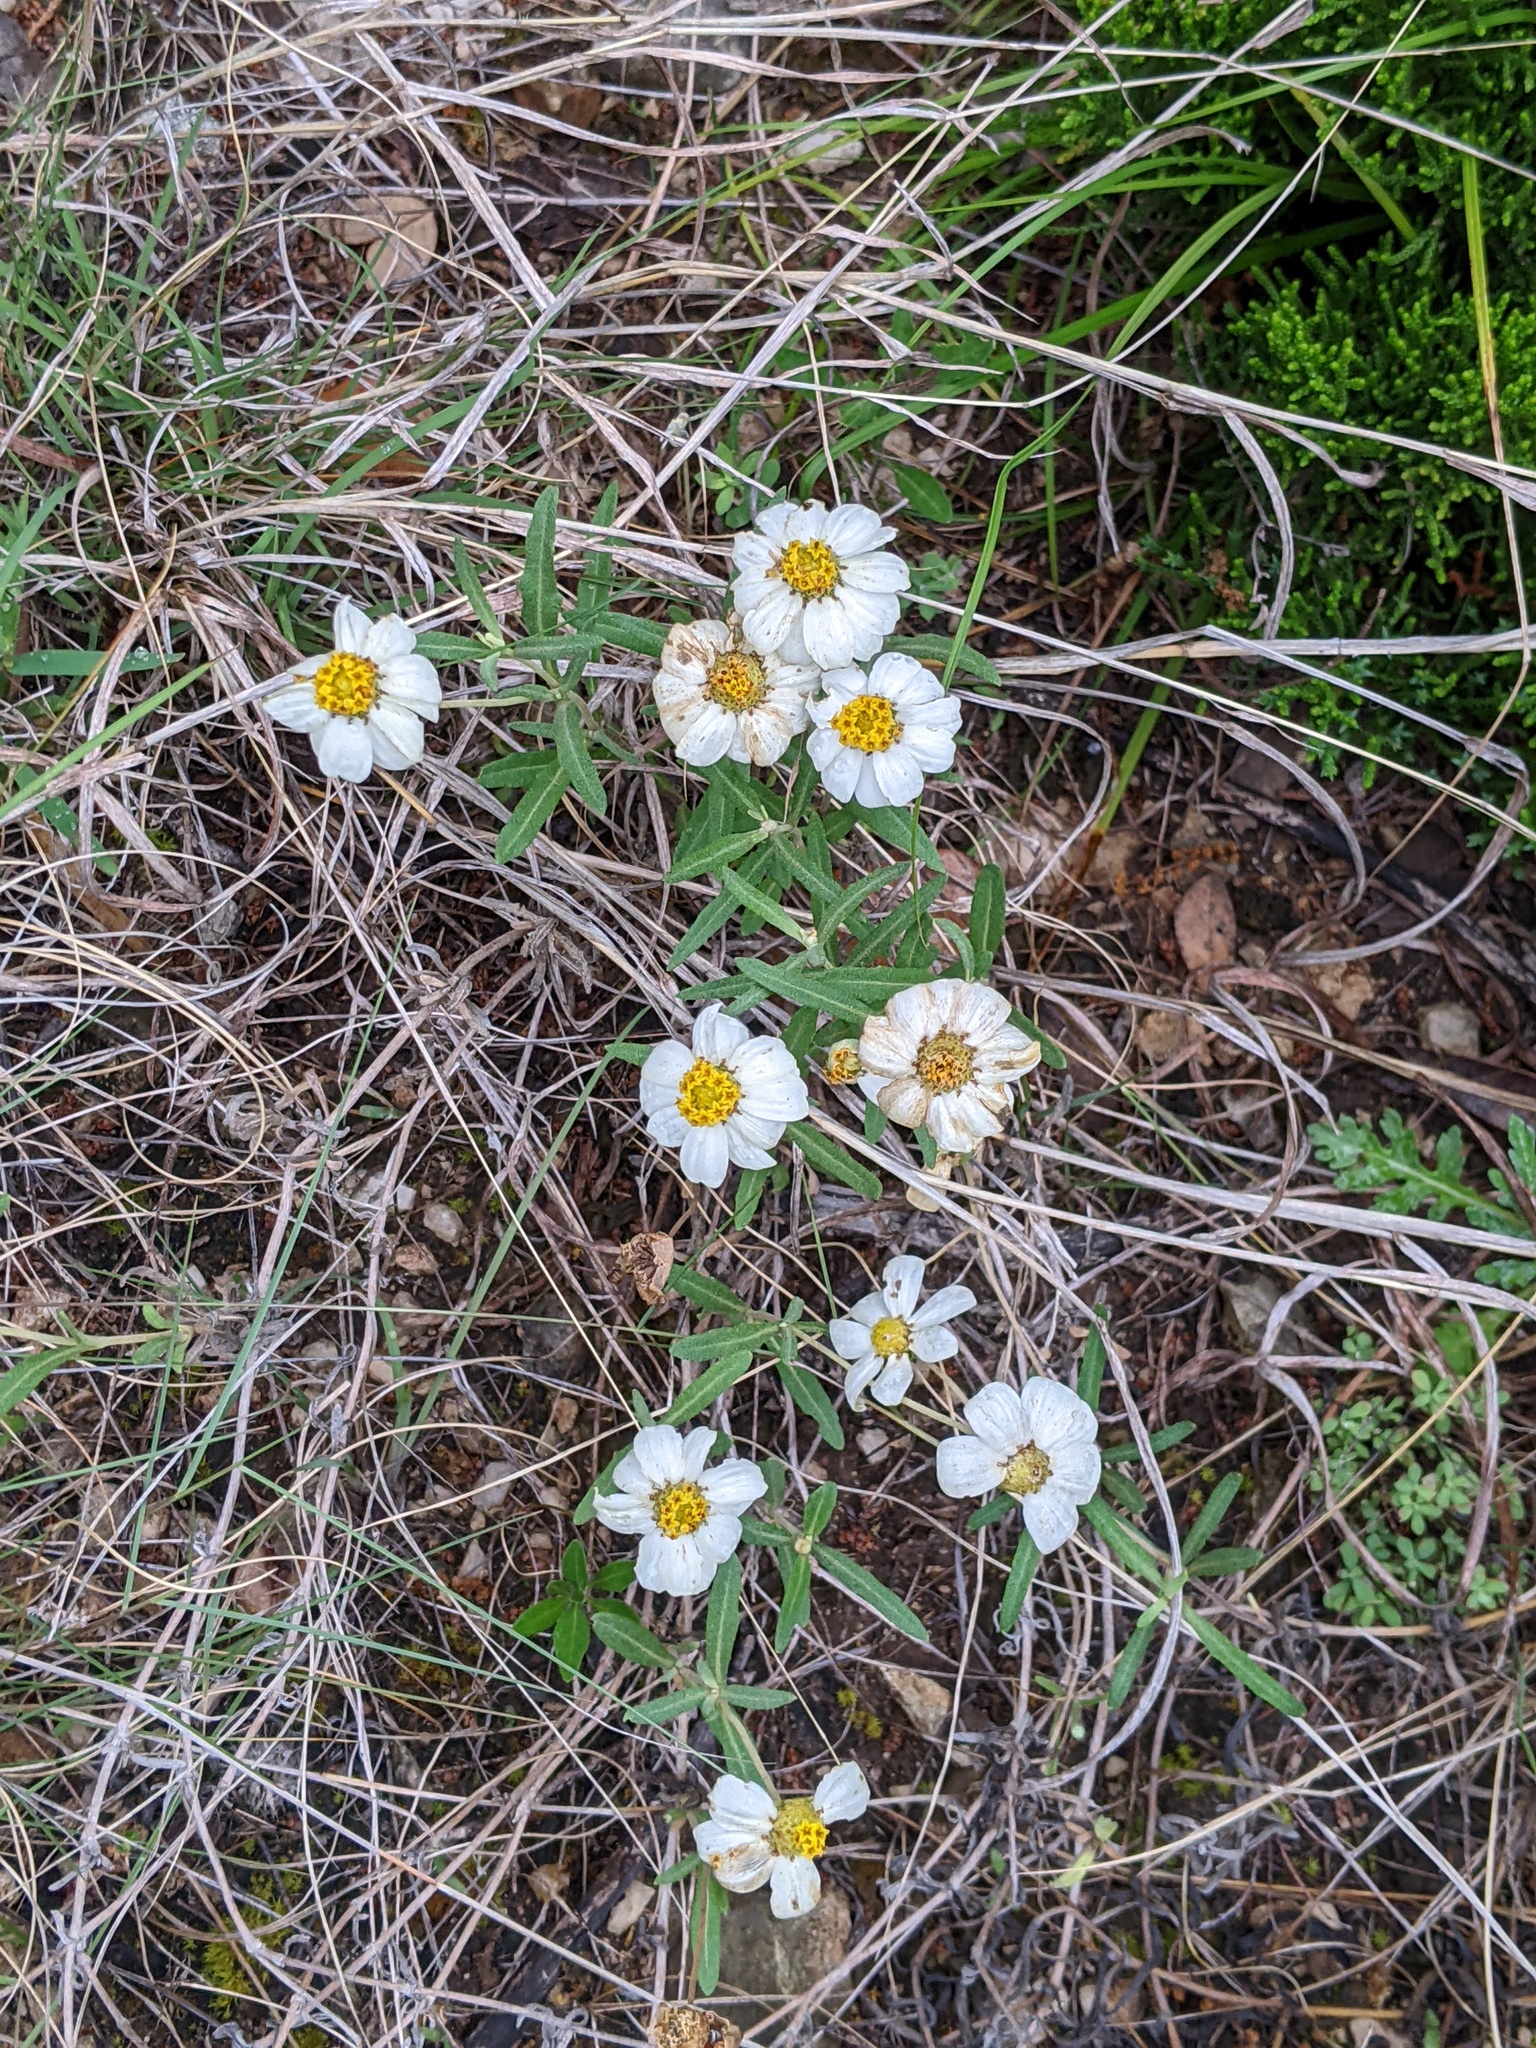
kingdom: Plantae
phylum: Tracheophyta
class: Magnoliopsida
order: Asterales
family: Asteraceae
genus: Melampodium
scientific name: Melampodium leucanthum
